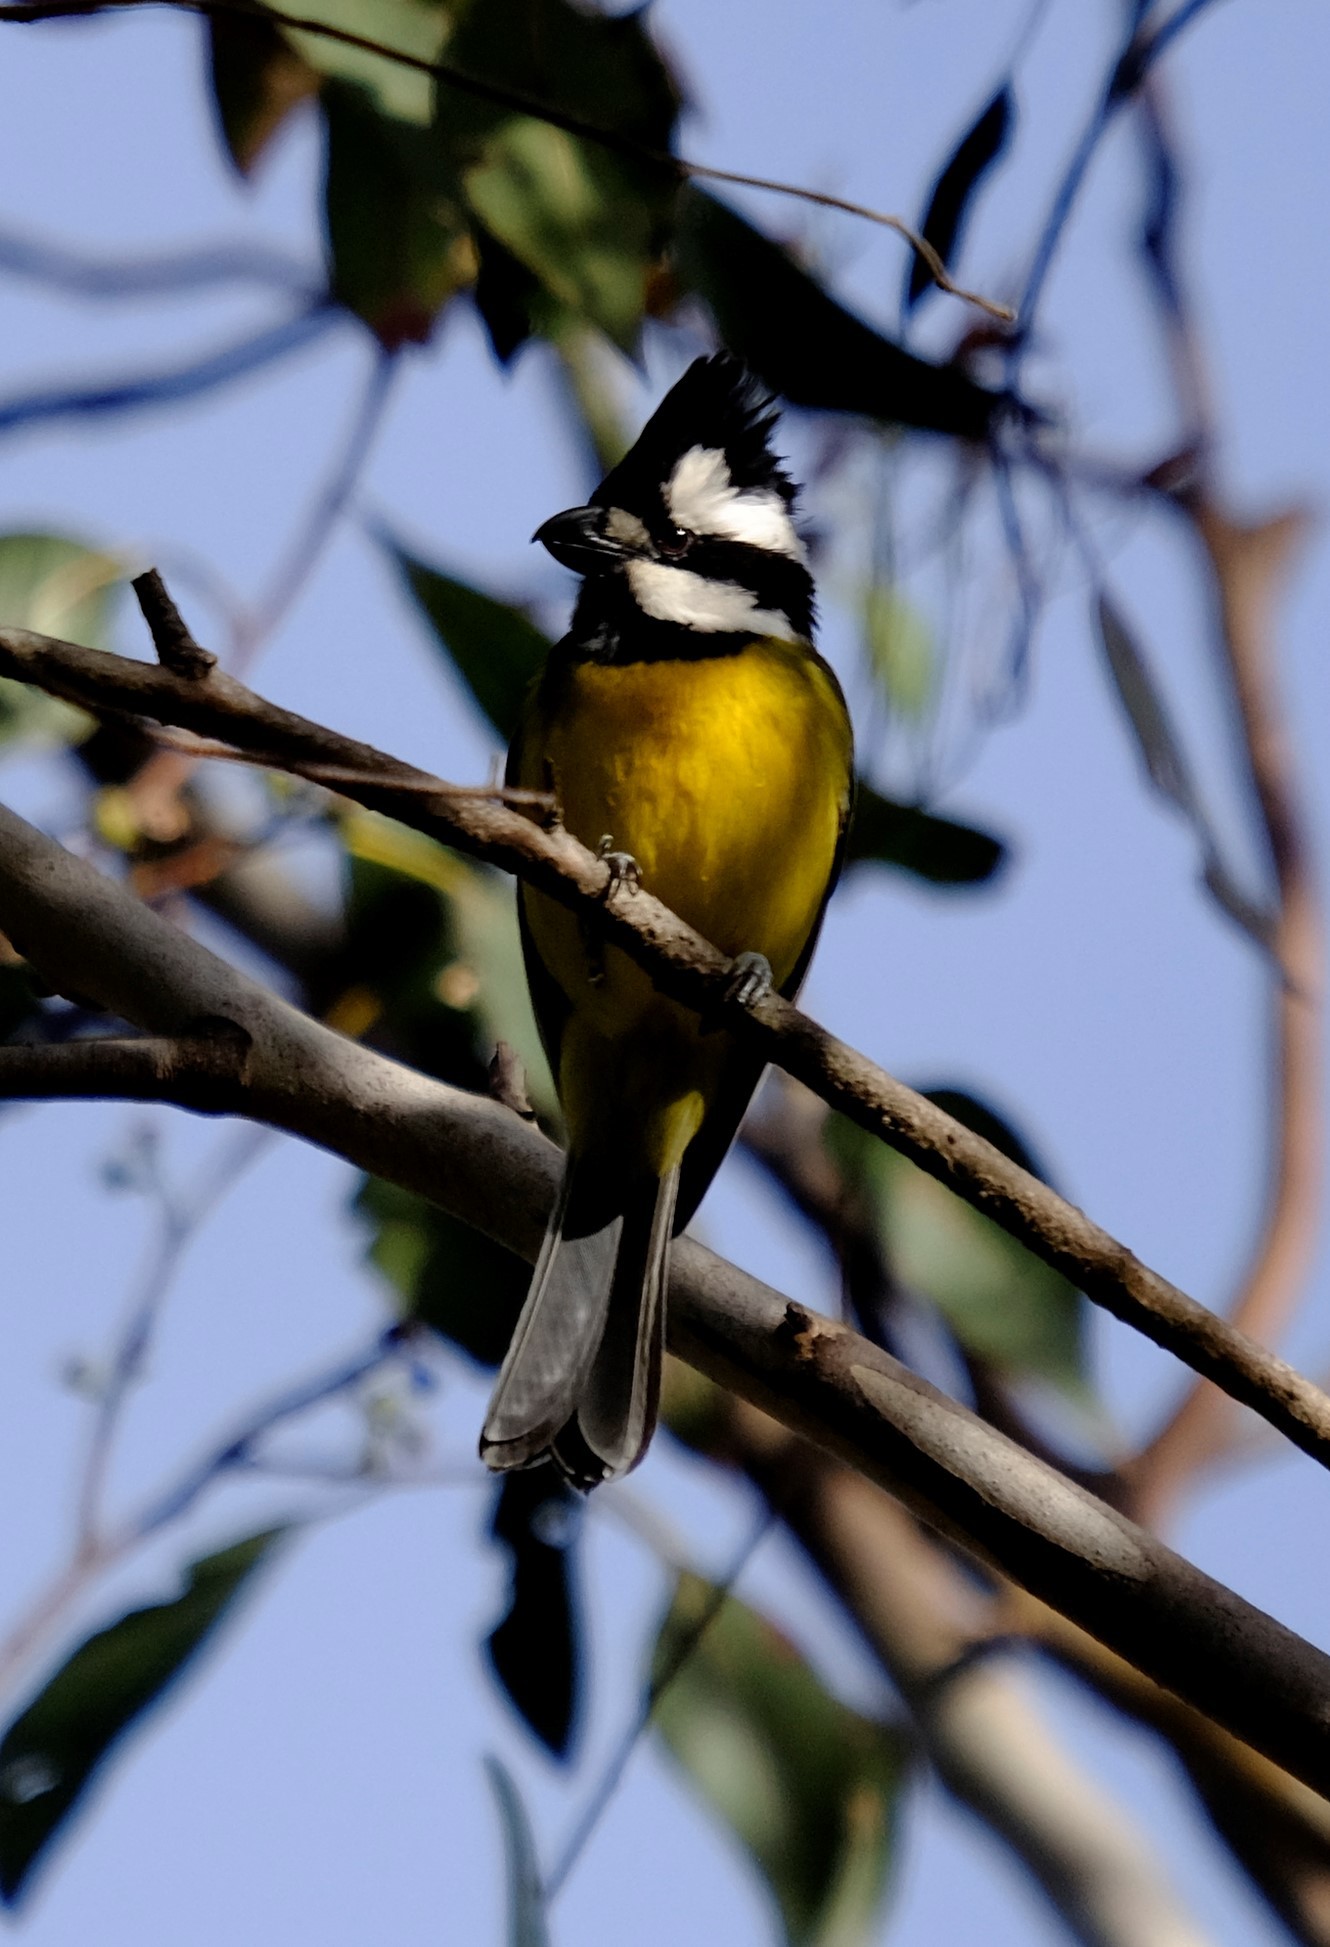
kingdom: Animalia
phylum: Chordata
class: Aves
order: Passeriformes
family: Pachycephalidae
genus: Falcunculus
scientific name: Falcunculus frontatus
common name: Crested shriketit
